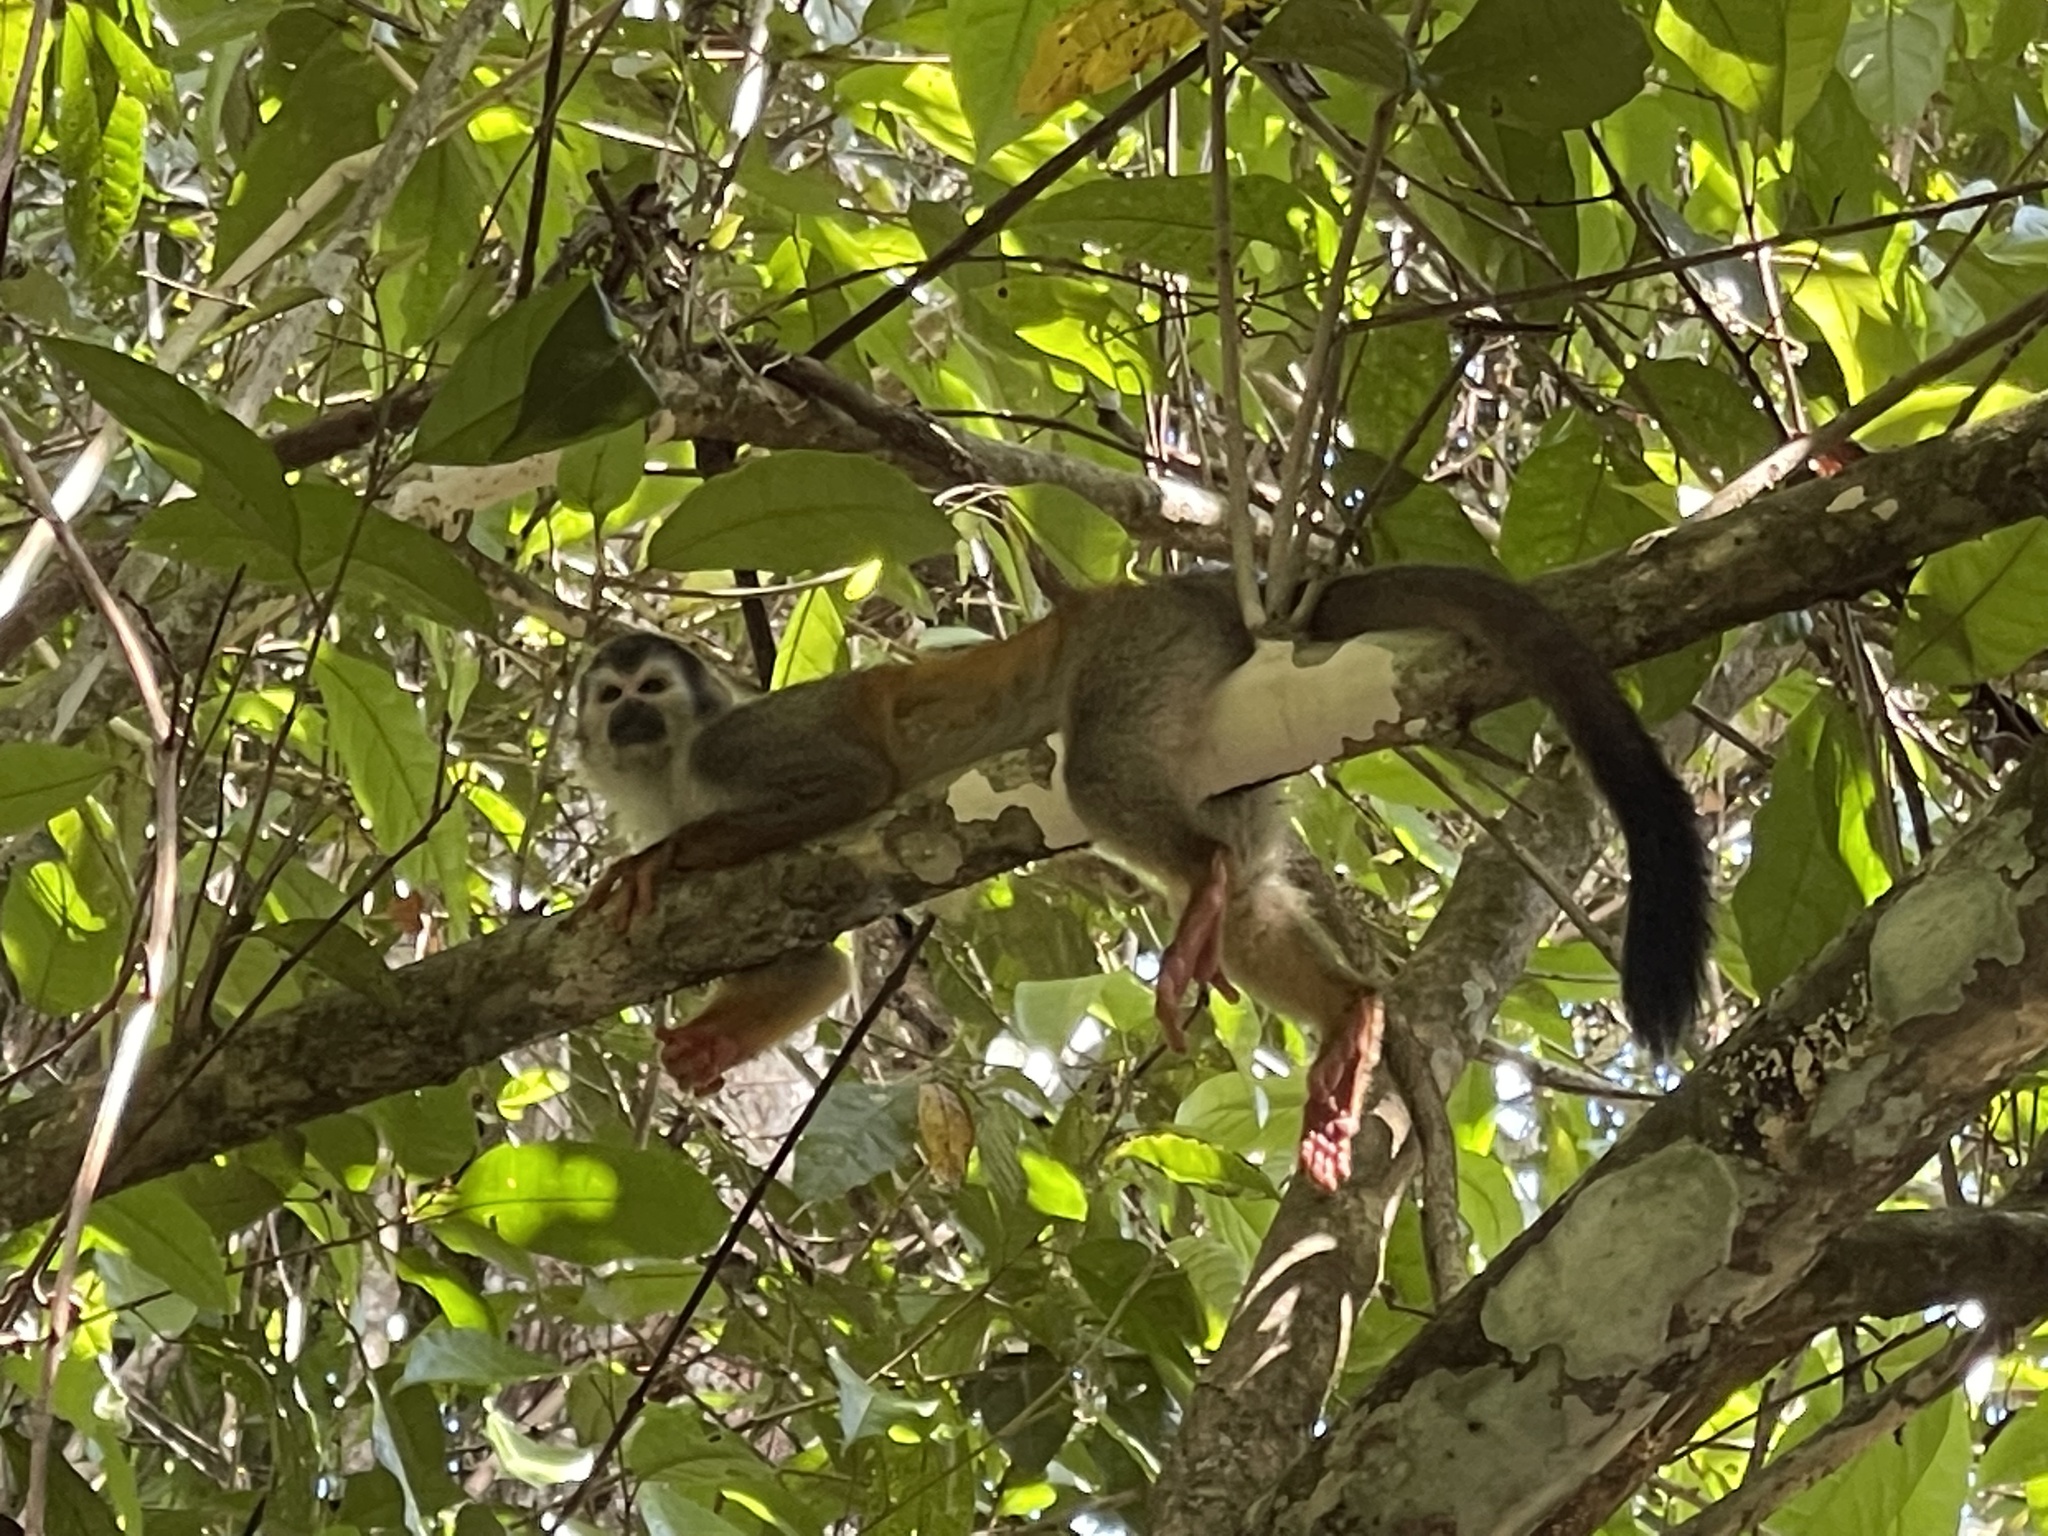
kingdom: Animalia
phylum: Chordata
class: Mammalia
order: Primates
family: Cebidae
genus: Saimiri
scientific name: Saimiri oerstedii
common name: Central american squirrel monkey
